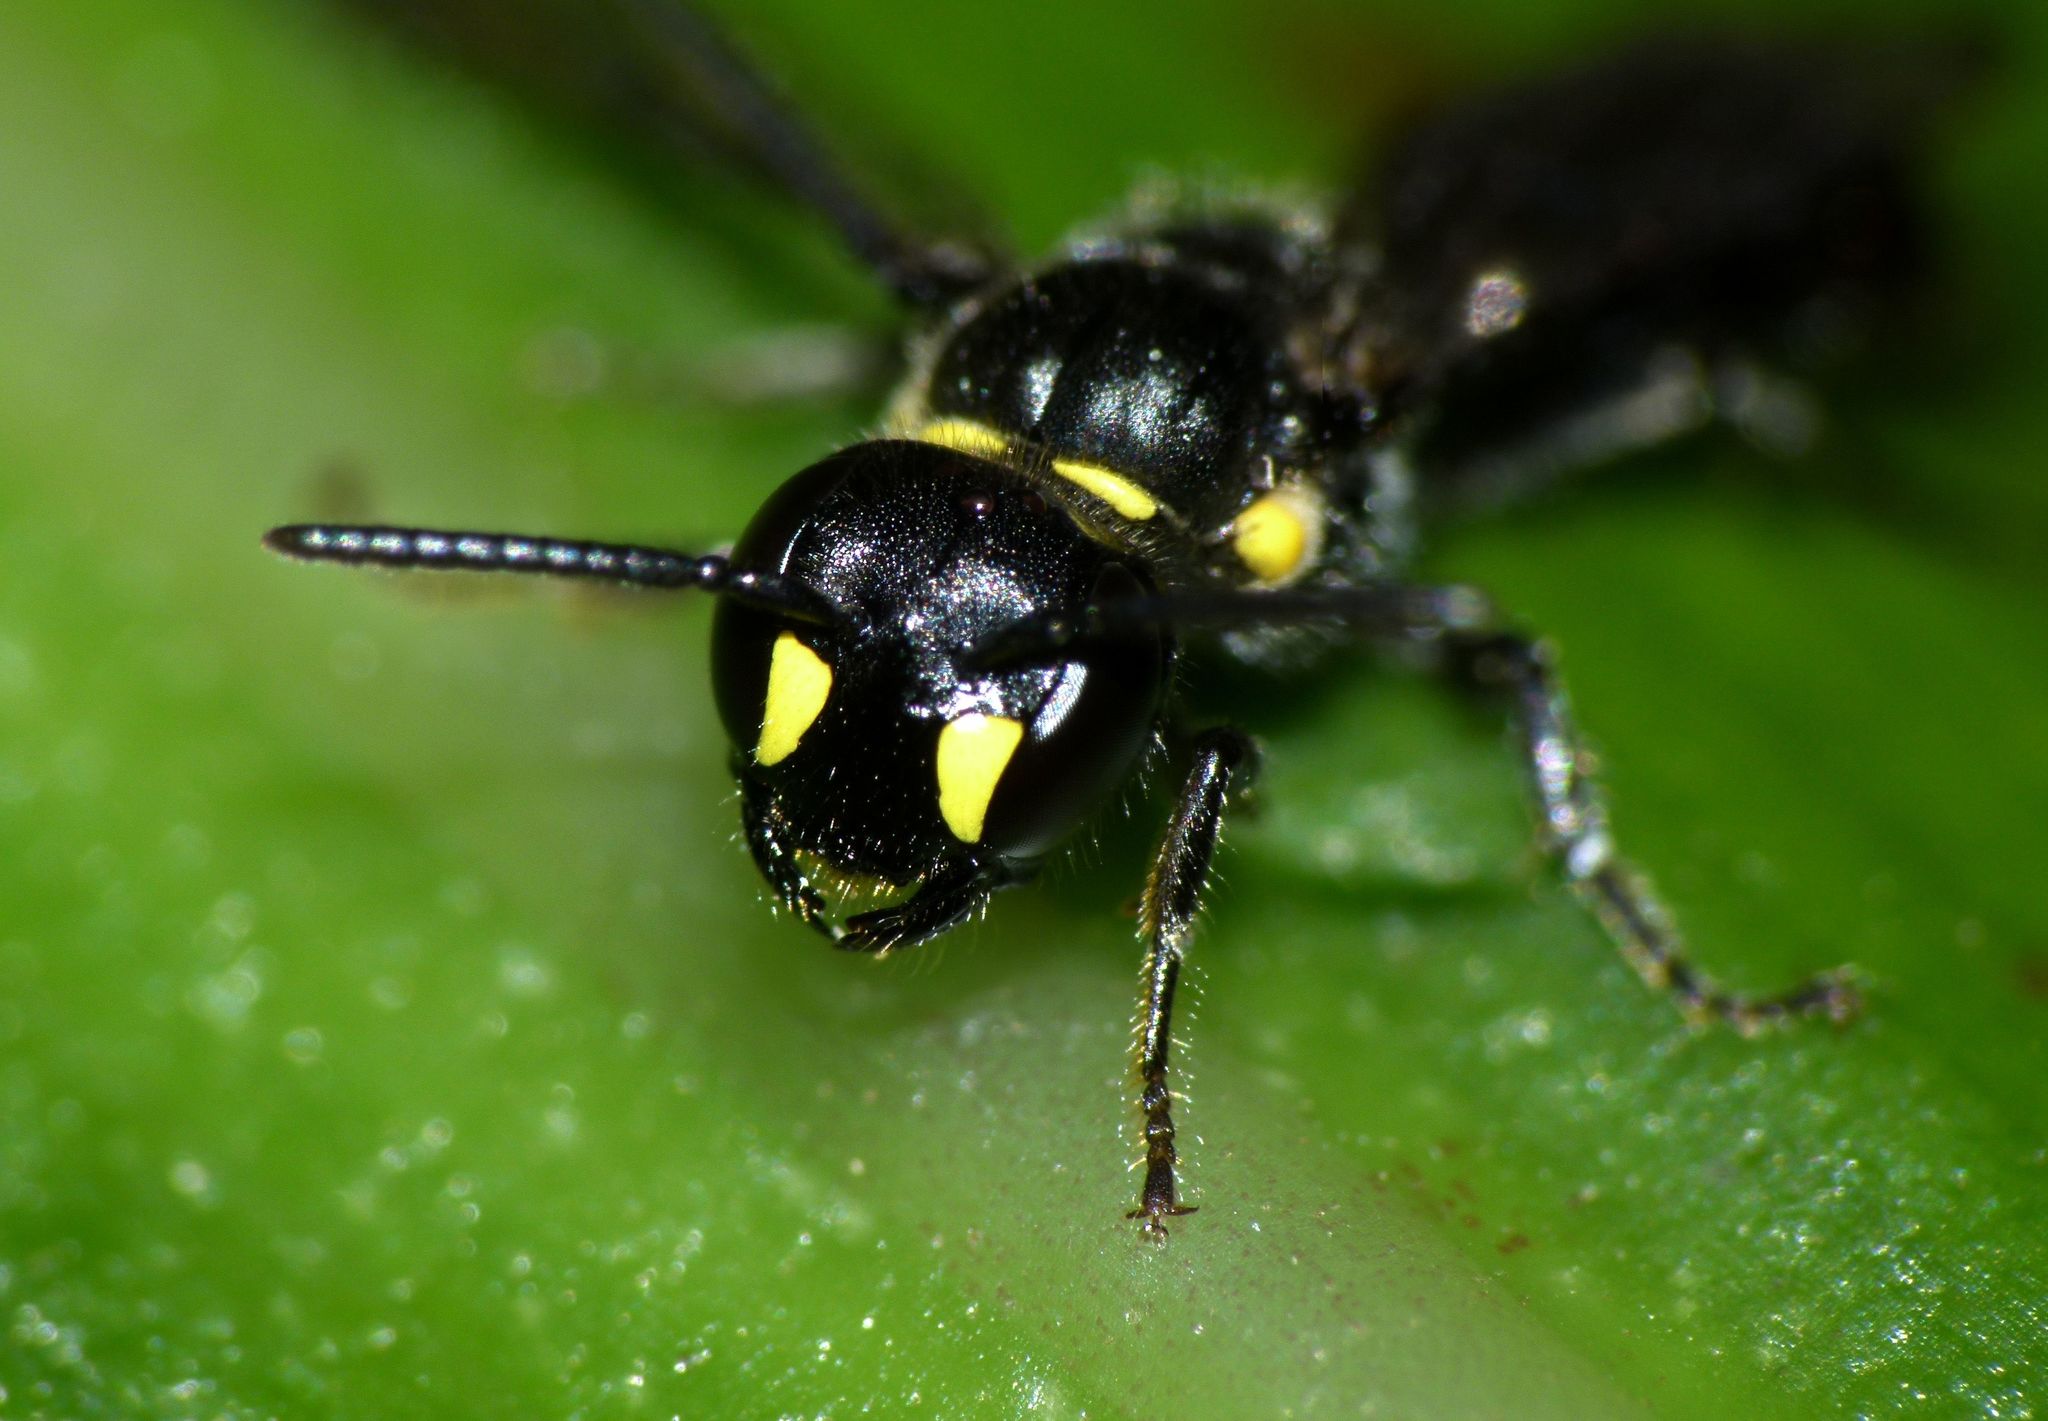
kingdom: Animalia
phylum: Arthropoda
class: Insecta
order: Hymenoptera
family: Colletidae
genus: Hylaeus
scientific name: Hylaeus agilis
